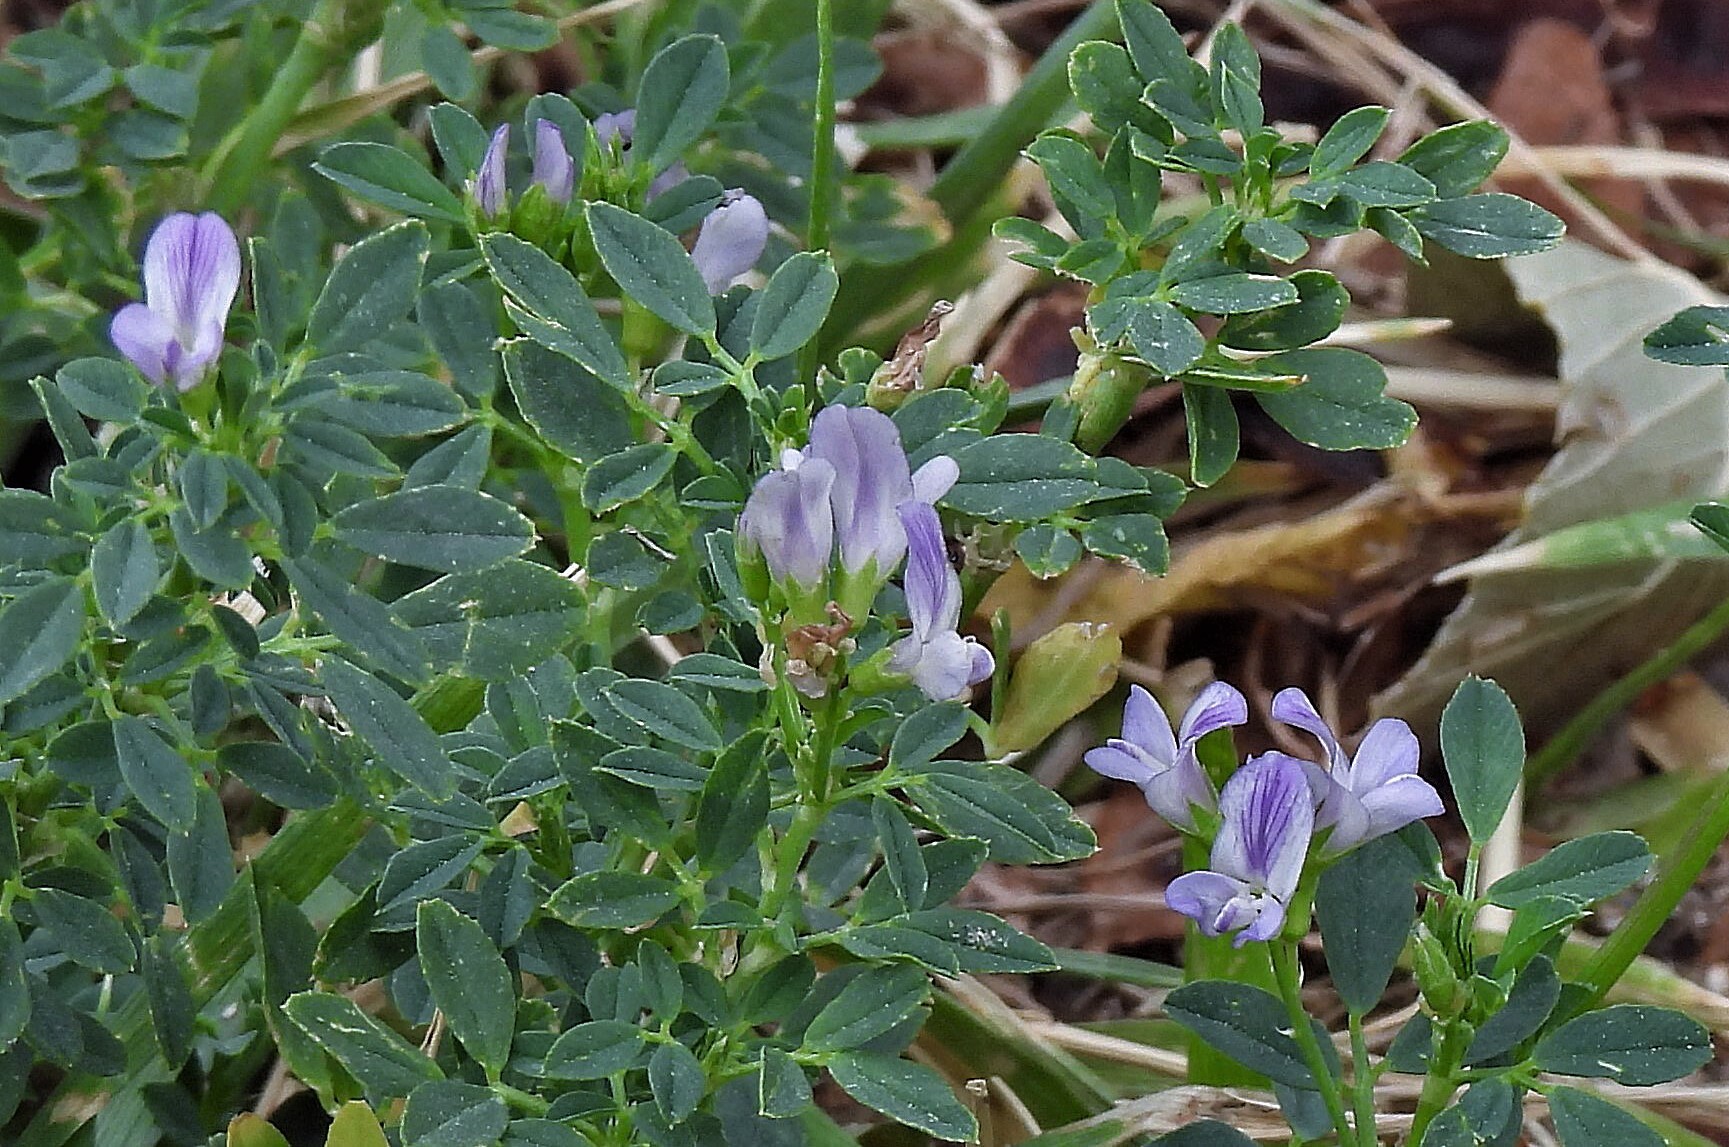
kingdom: Plantae
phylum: Tracheophyta
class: Magnoliopsida
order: Fabales
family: Fabaceae
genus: Medicago
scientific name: Medicago sativa
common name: Alfalfa
